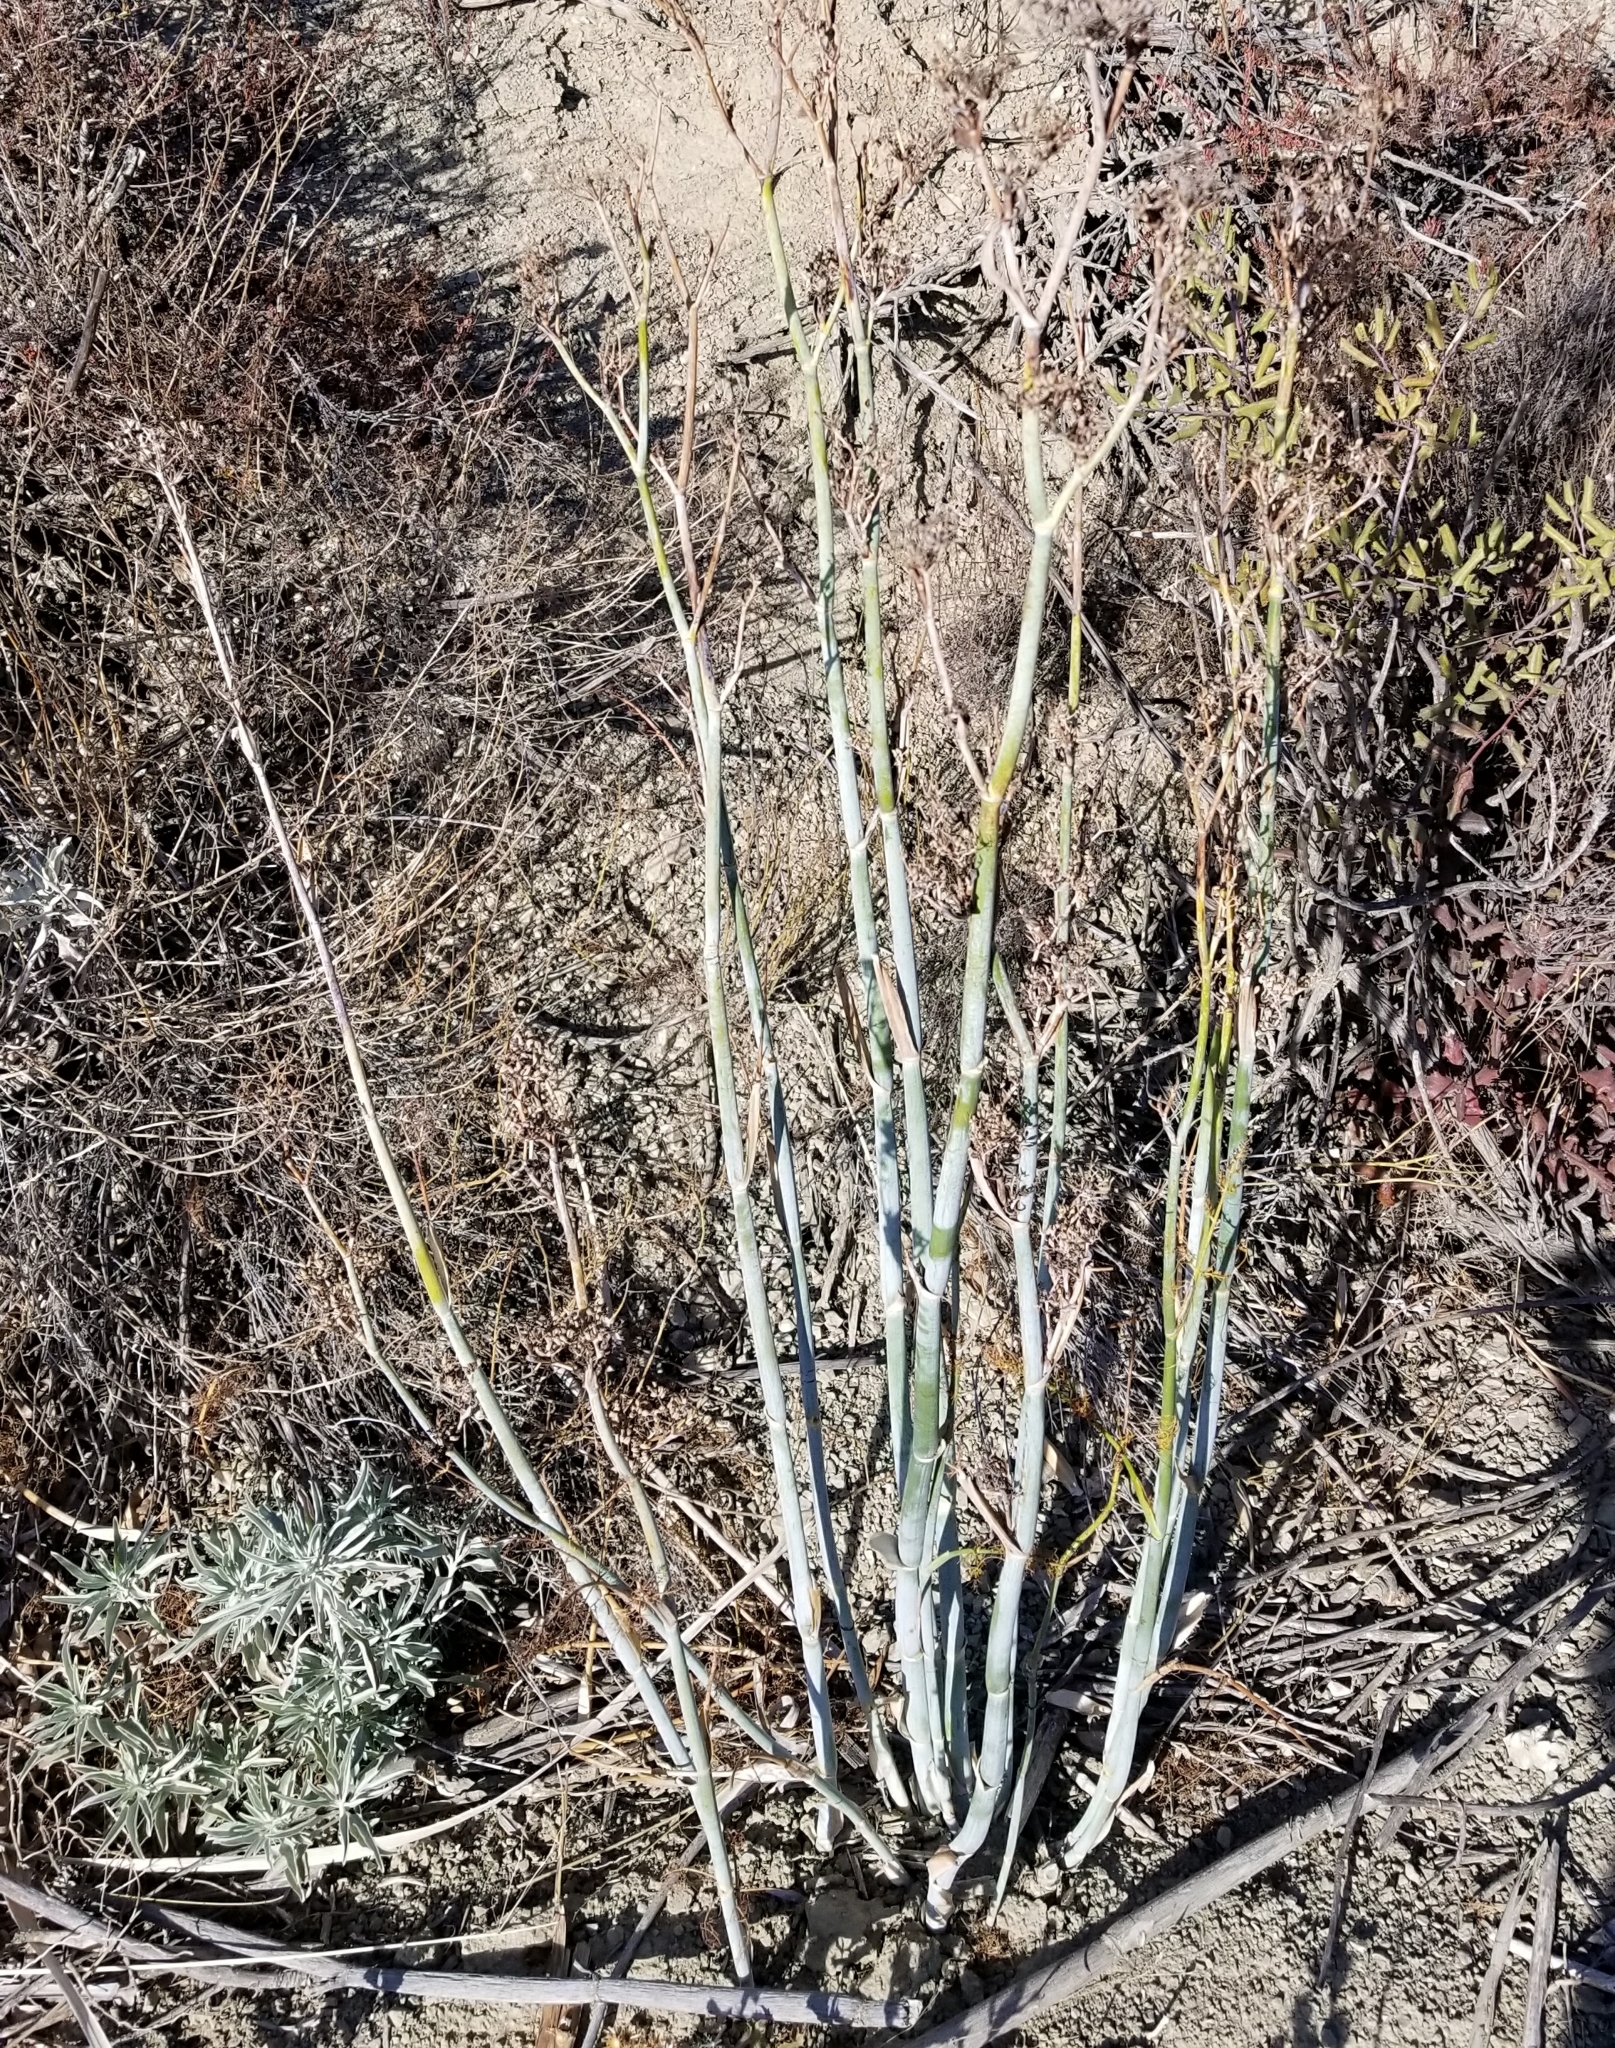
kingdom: Plantae
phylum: Tracheophyta
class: Magnoliopsida
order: Apiales
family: Apiaceae
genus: Foeniculum
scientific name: Foeniculum vulgare
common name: Fennel
